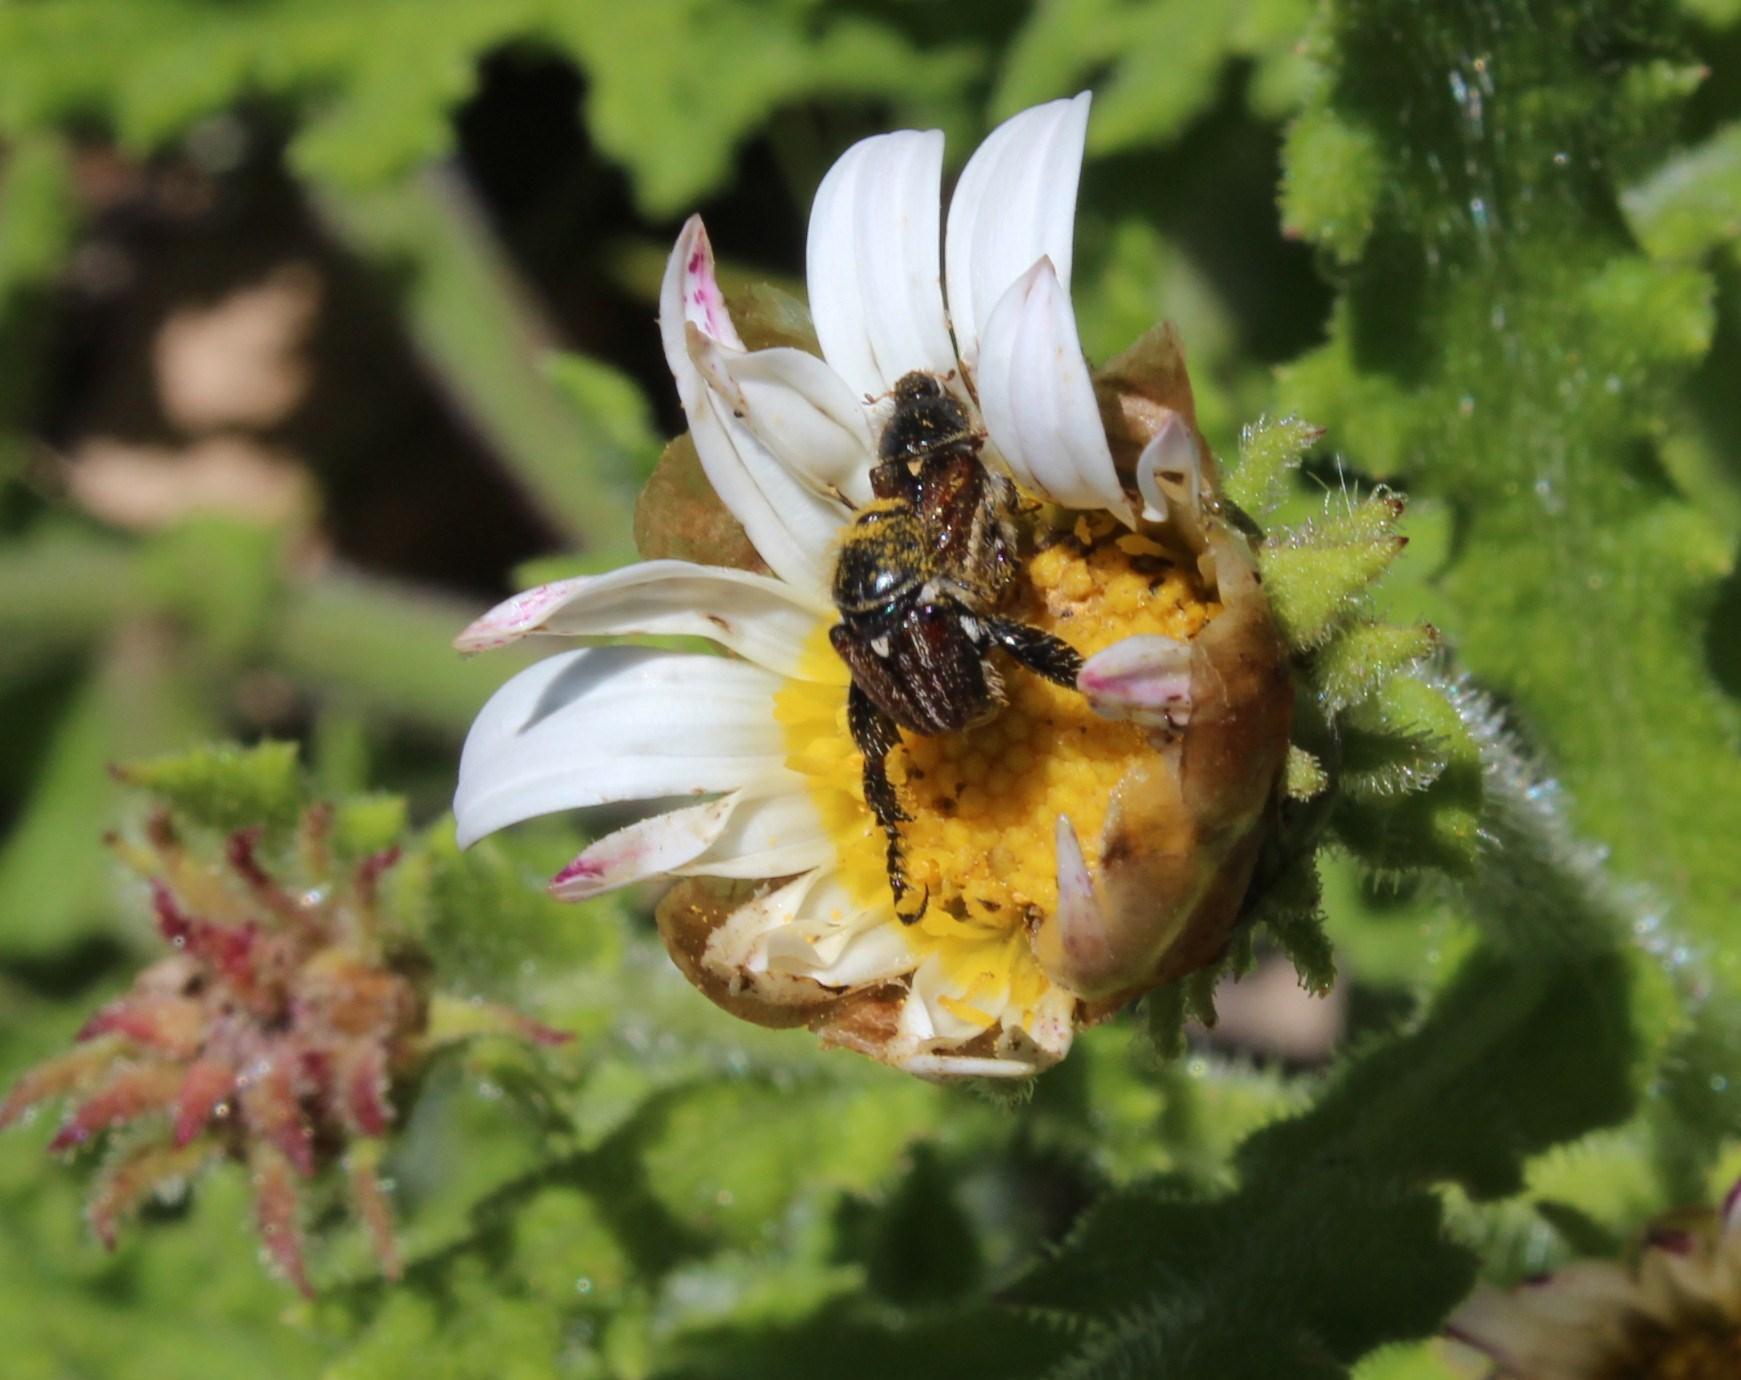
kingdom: Plantae
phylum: Tracheophyta
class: Magnoliopsida
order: Asterales
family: Asteraceae
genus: Arctotis
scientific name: Arctotis aspera
